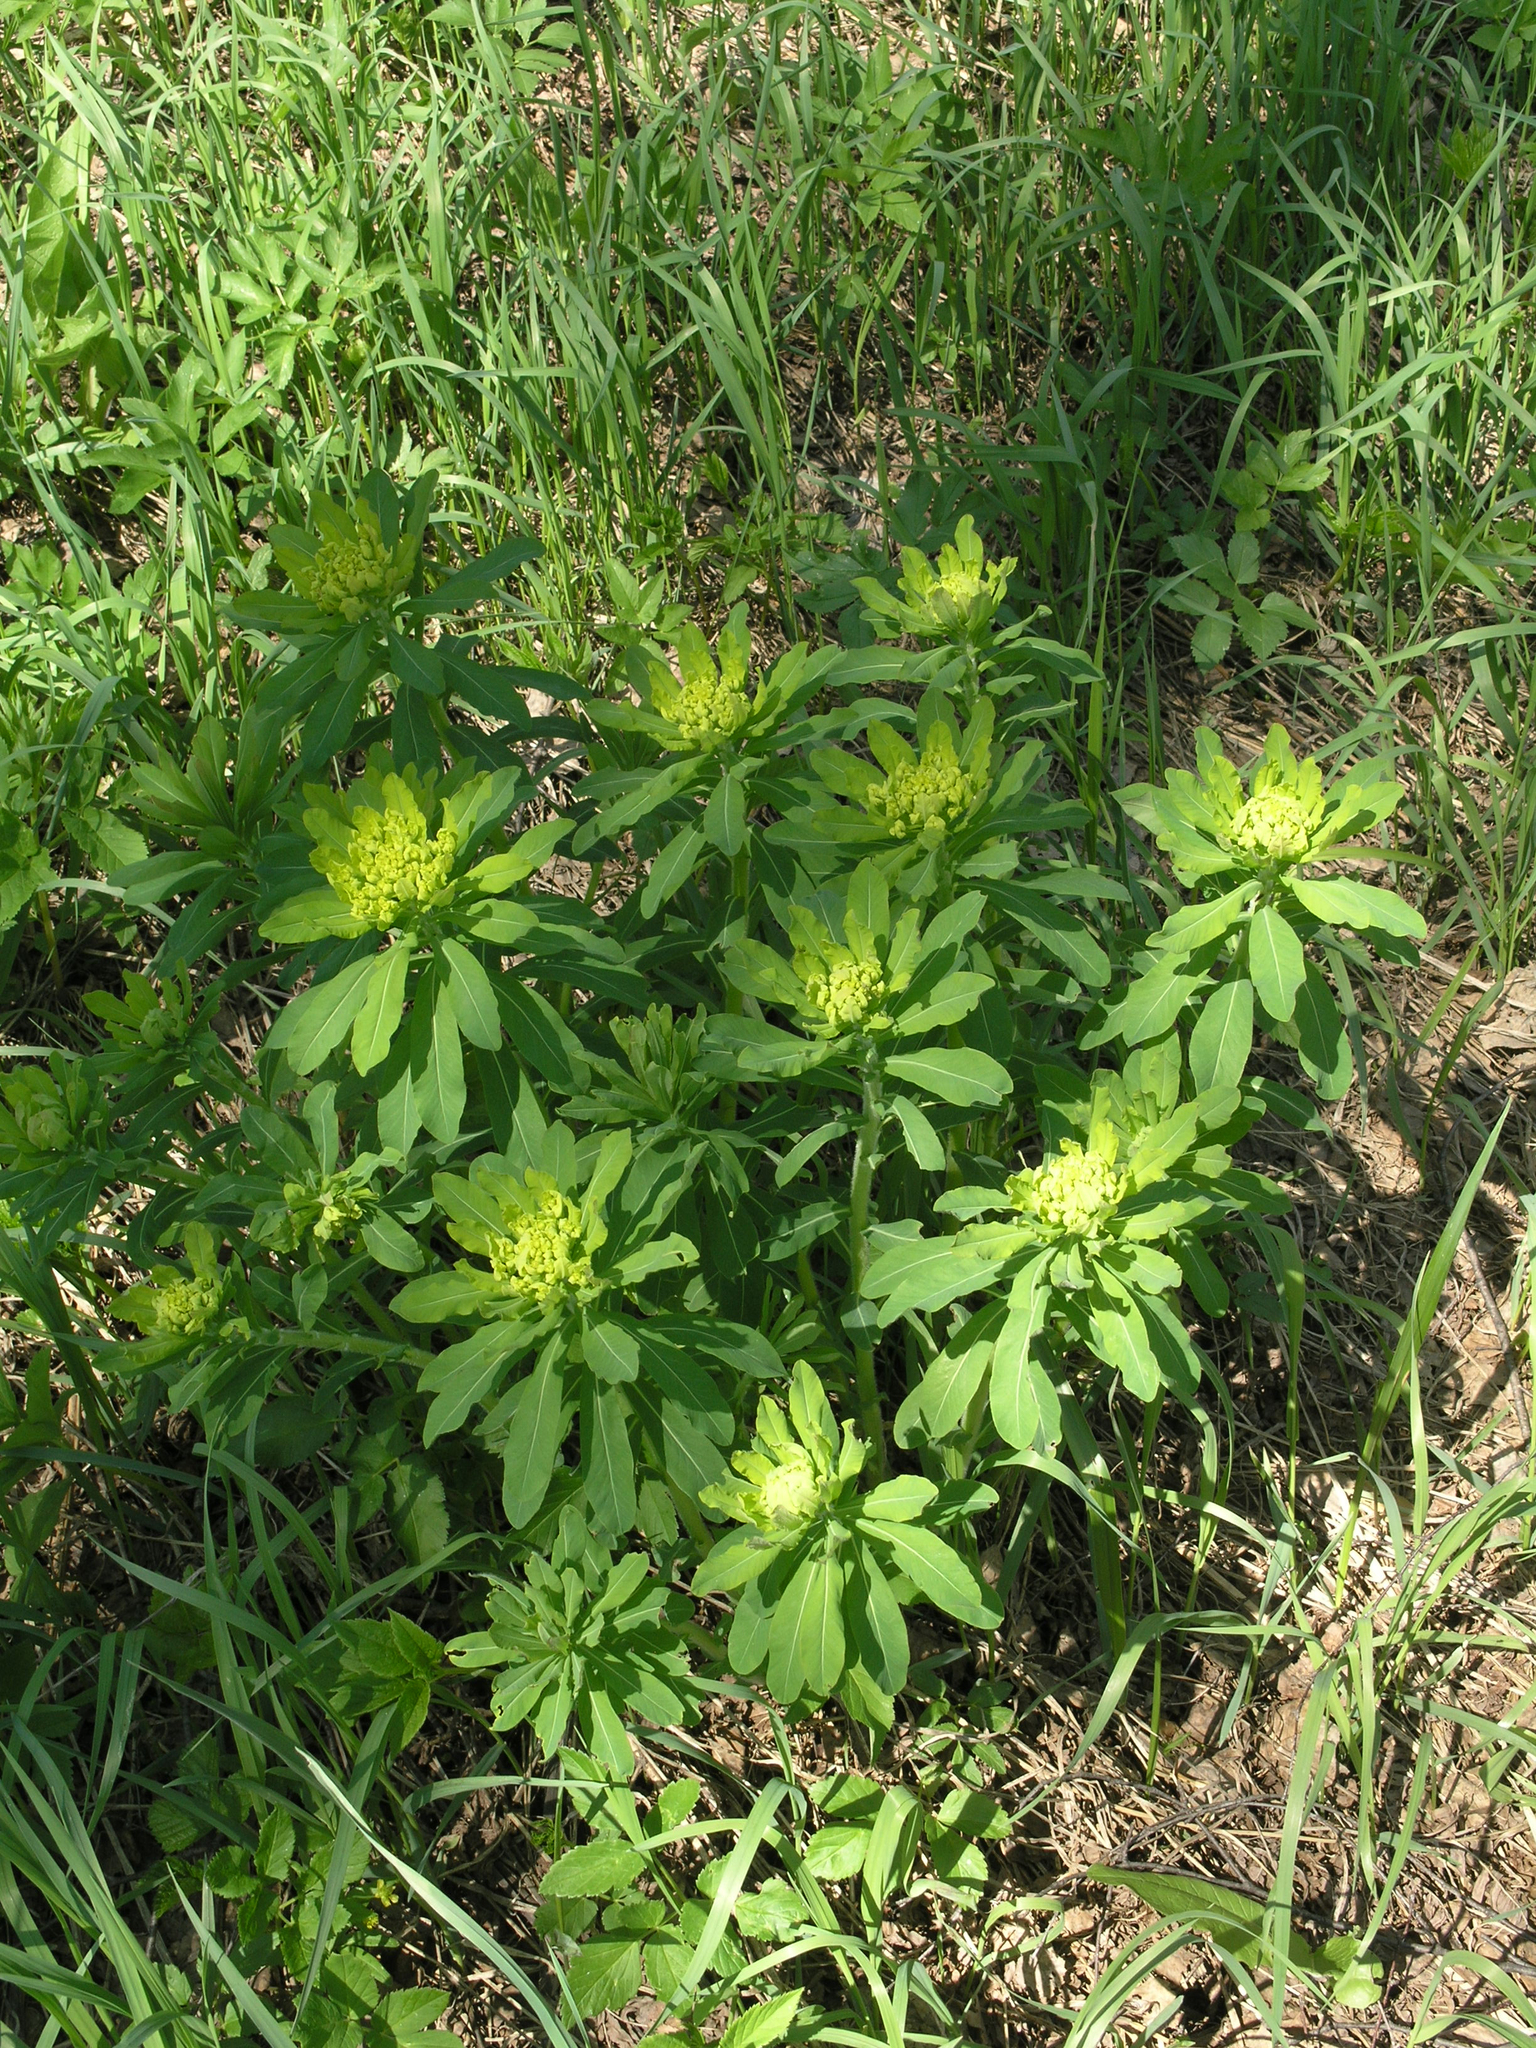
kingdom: Plantae
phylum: Tracheophyta
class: Magnoliopsida
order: Malpighiales
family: Euphorbiaceae
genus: Euphorbia
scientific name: Euphorbia pilosa
